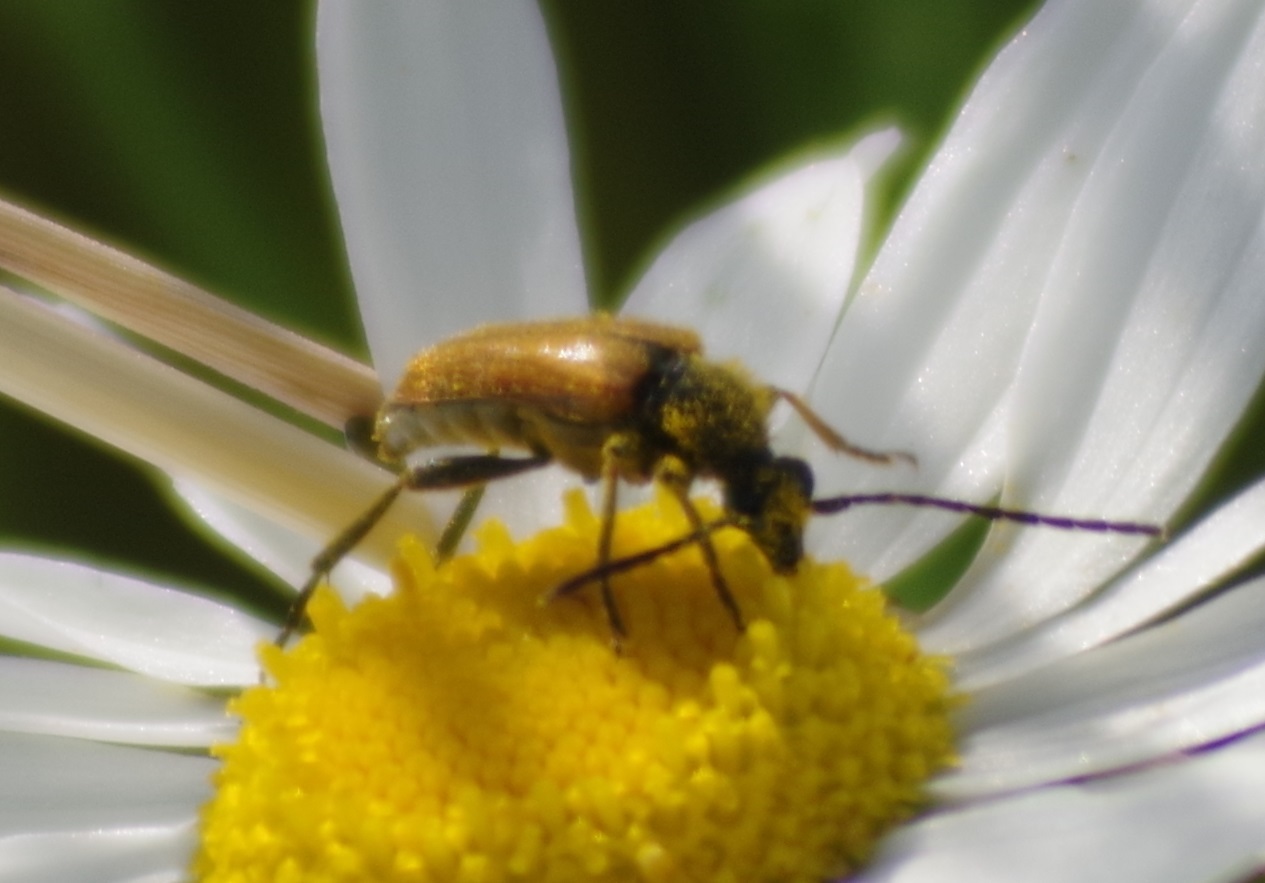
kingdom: Animalia
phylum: Arthropoda
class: Insecta
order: Coleoptera
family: Cerambycidae
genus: Pseudovadonia
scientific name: Pseudovadonia livida
